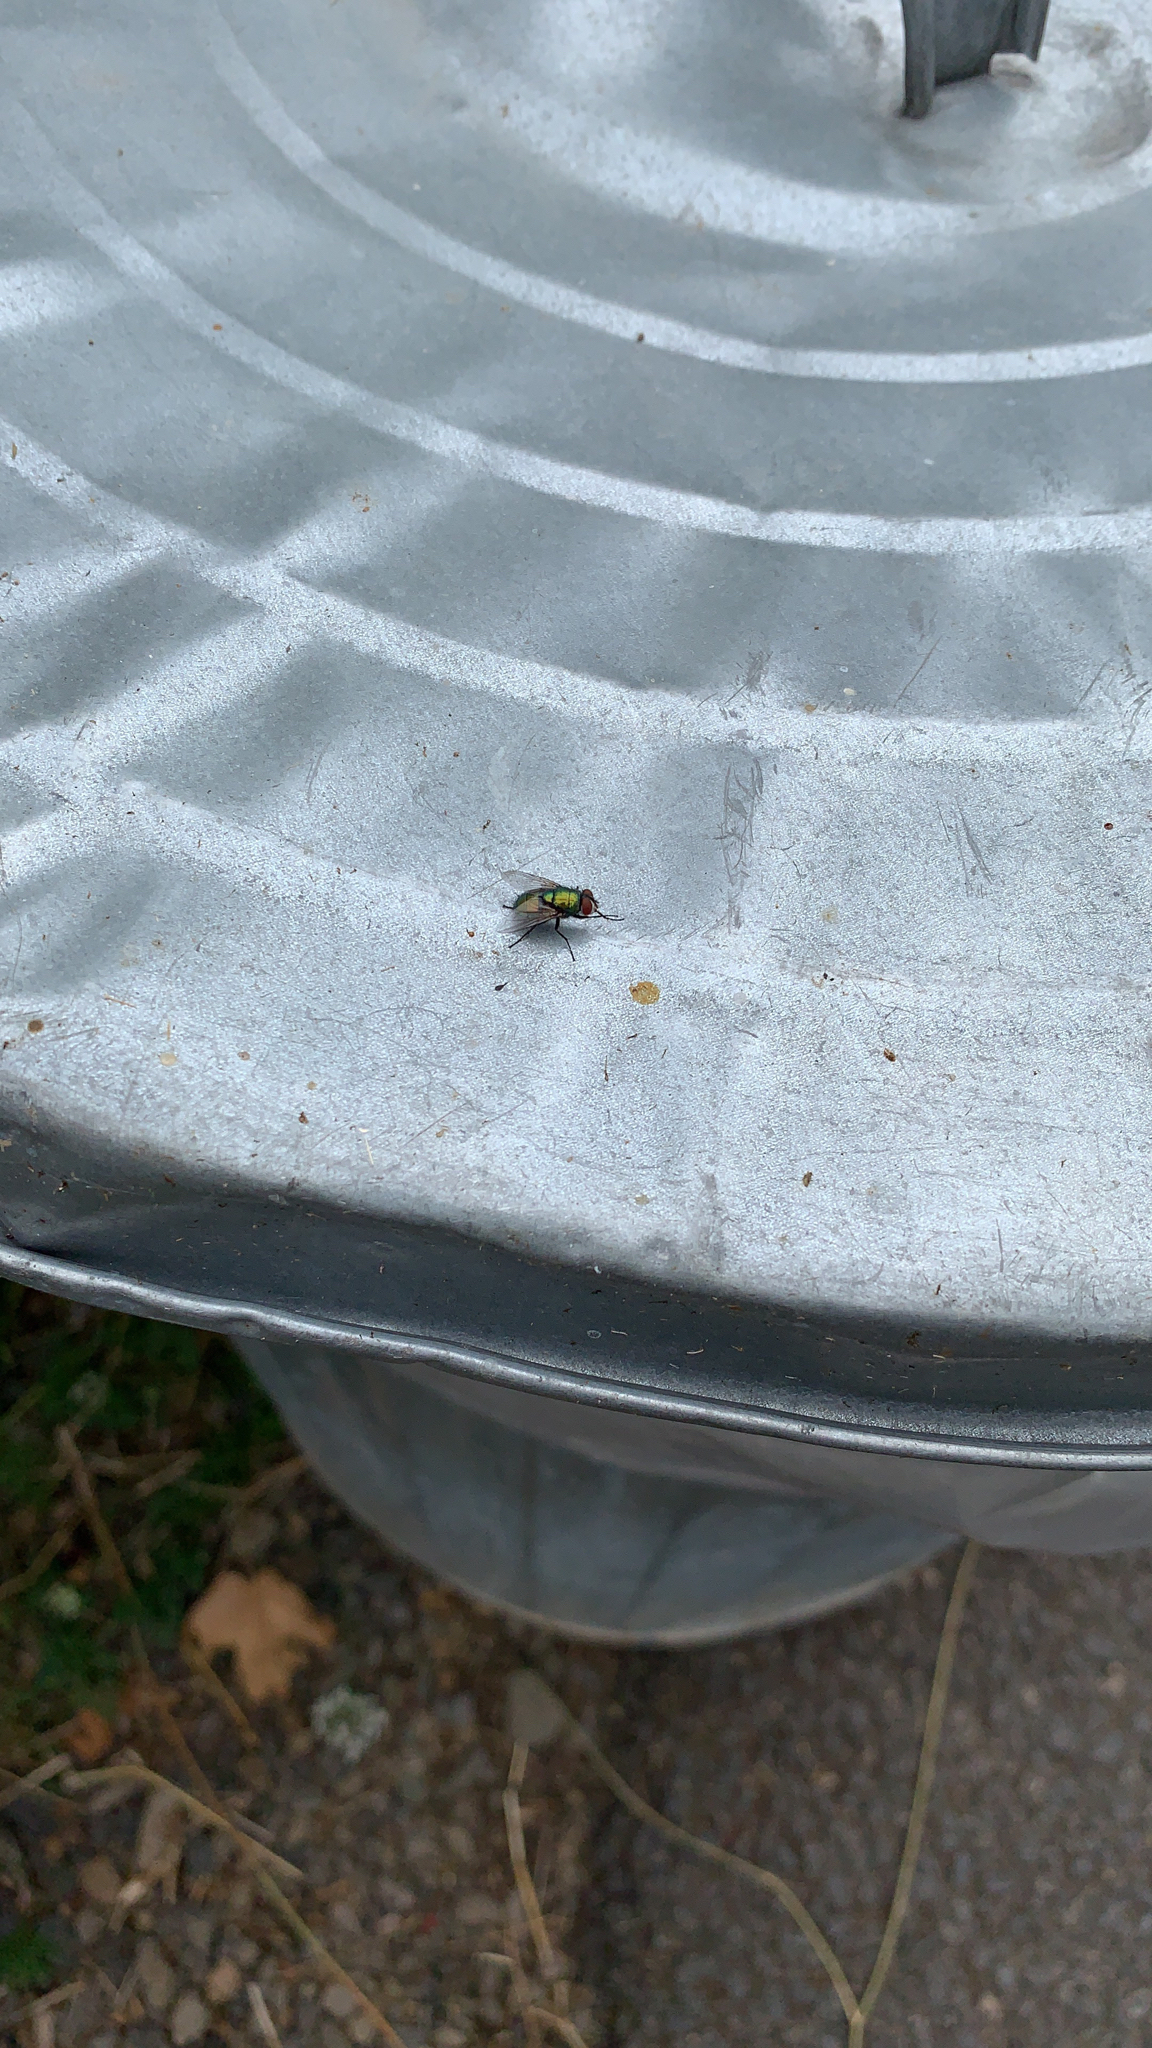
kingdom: Animalia
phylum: Arthropoda
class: Insecta
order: Diptera
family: Calliphoridae
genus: Lucilia
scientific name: Lucilia sericata
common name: Blow fly
